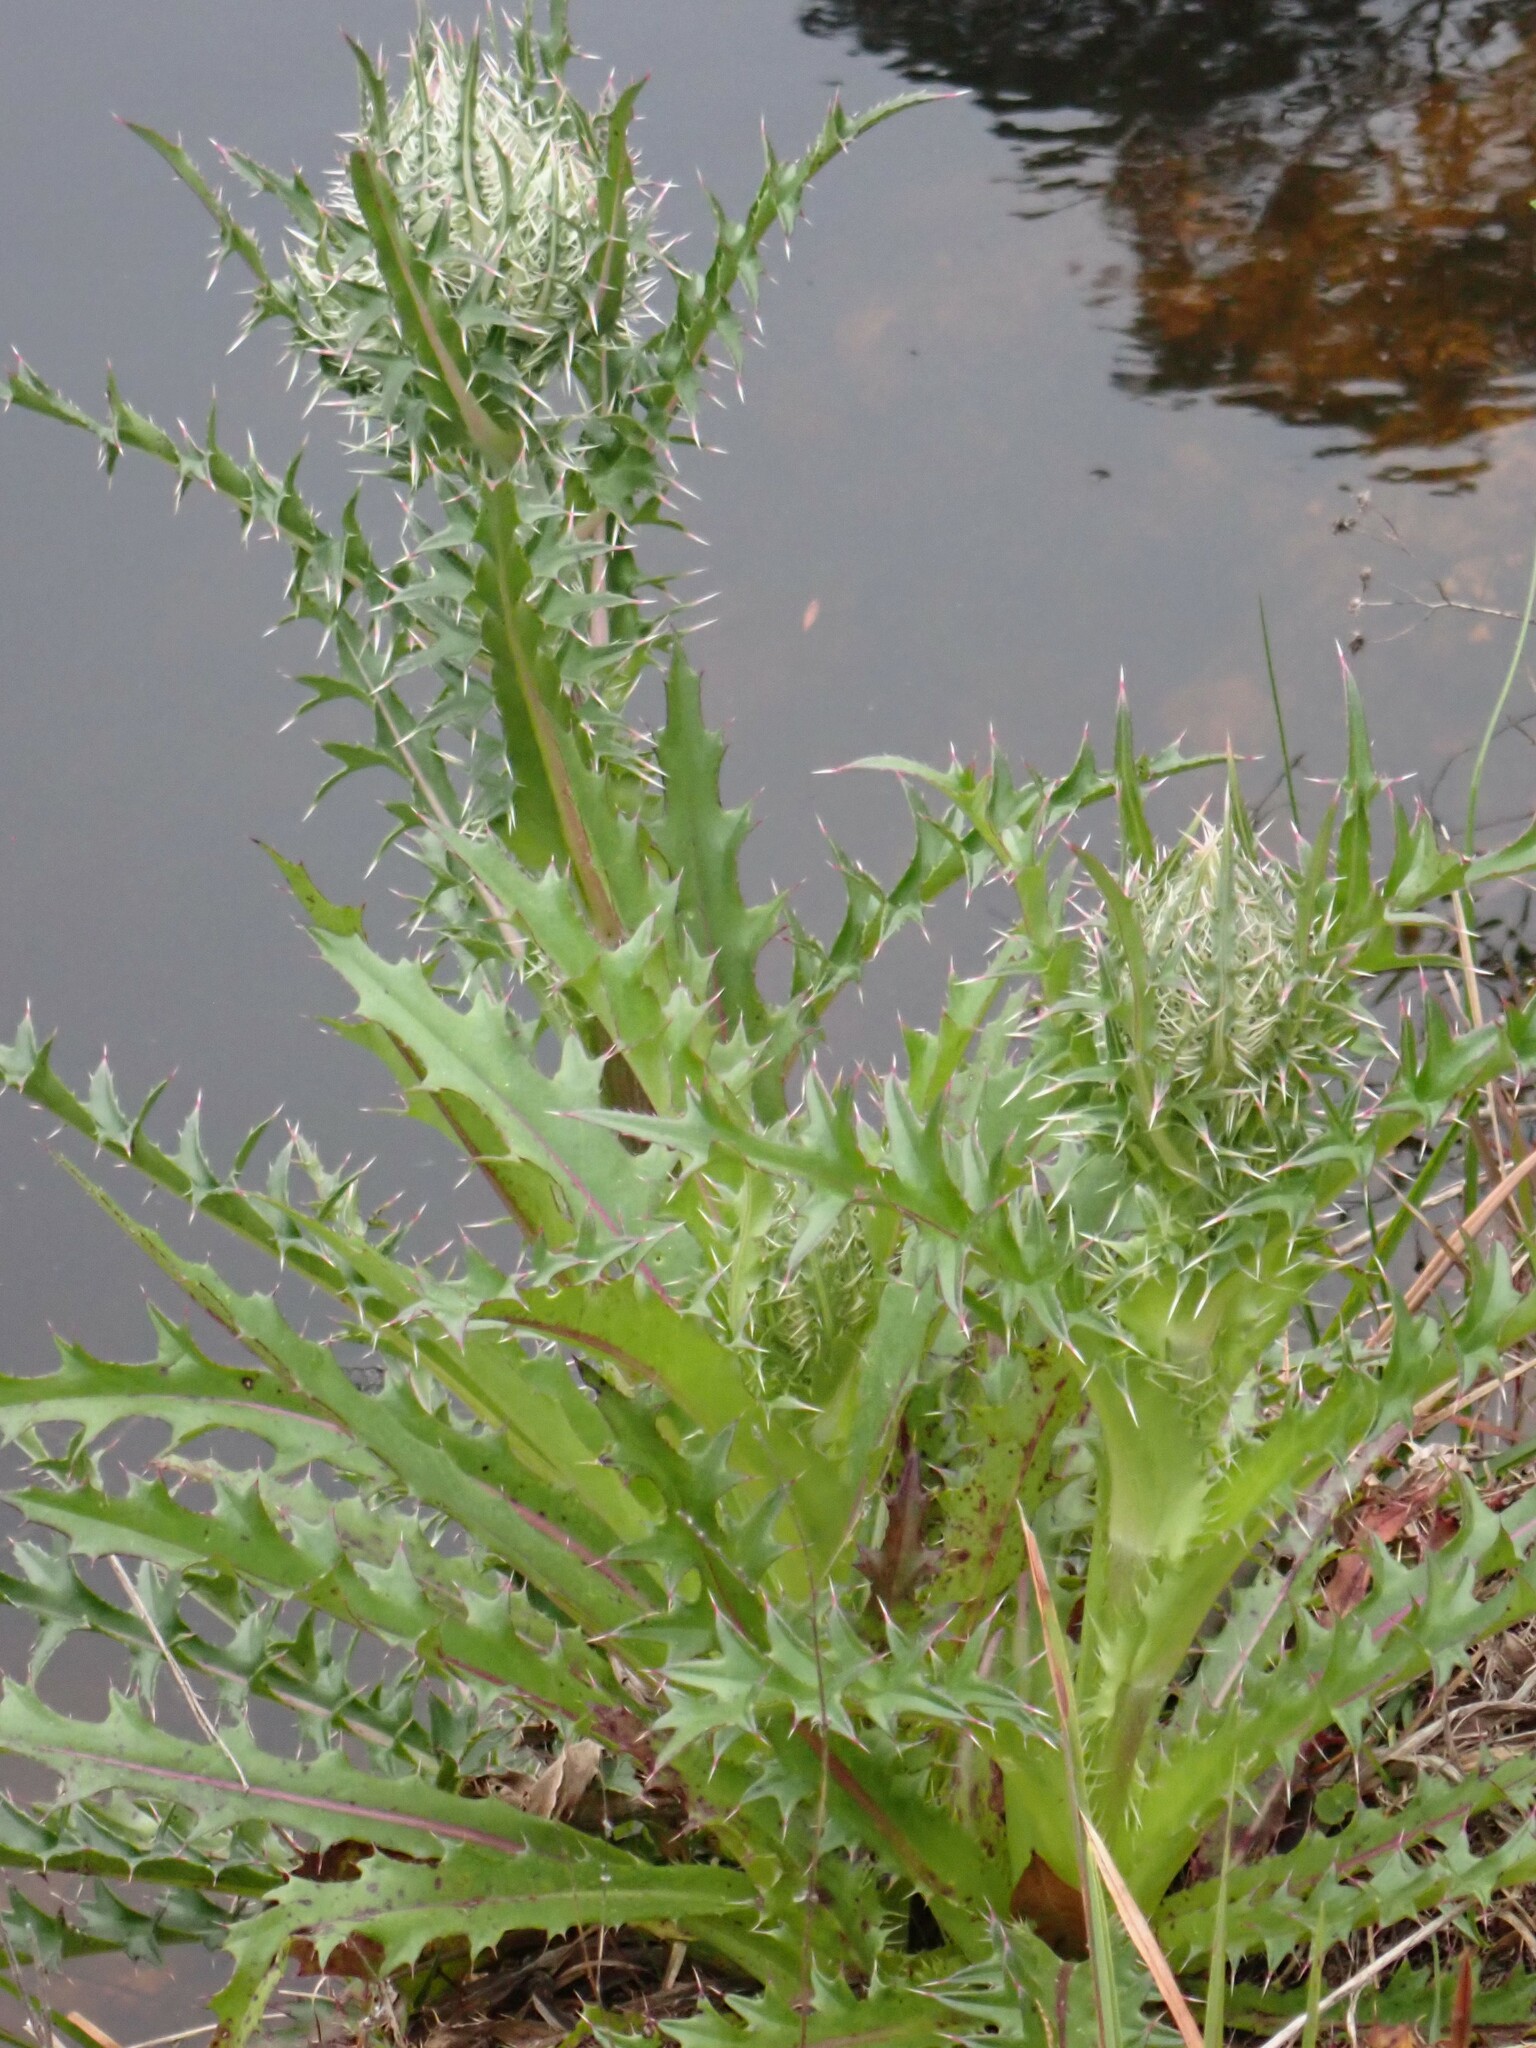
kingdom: Plantae
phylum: Tracheophyta
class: Magnoliopsida
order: Asterales
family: Asteraceae
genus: Cirsium
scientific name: Cirsium horridulum
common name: Bristly thistle
